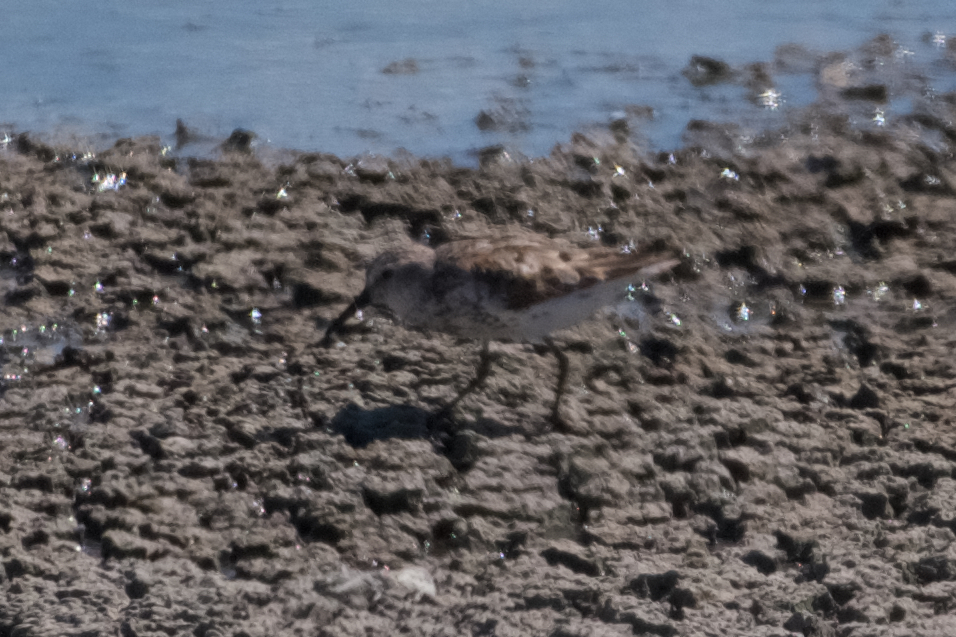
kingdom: Animalia
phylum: Chordata
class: Aves
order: Charadriiformes
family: Scolopacidae
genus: Calidris
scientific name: Calidris mauri
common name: Western sandpiper
